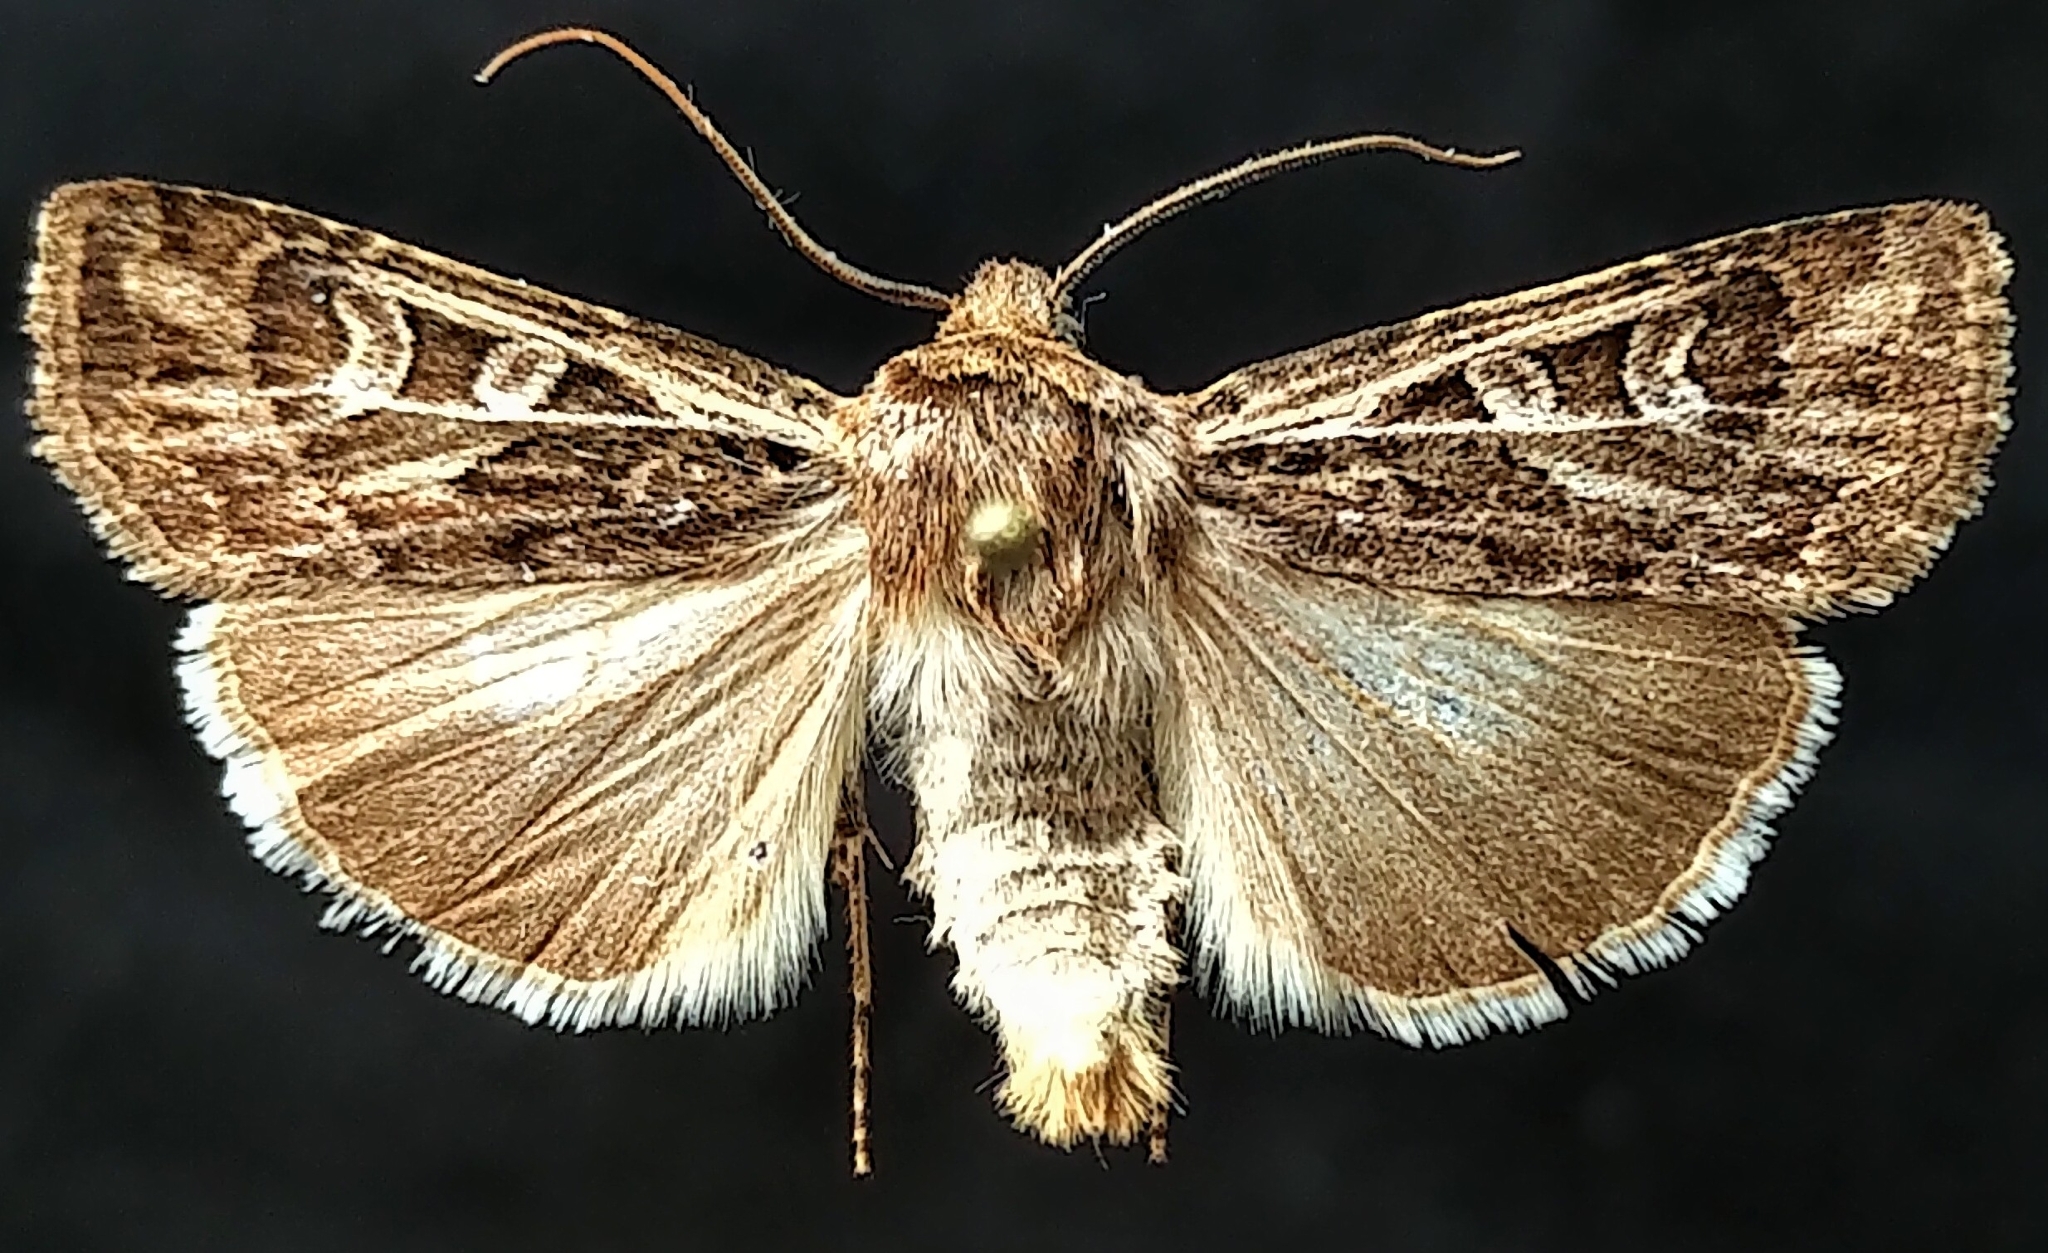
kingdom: Animalia
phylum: Arthropoda
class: Insecta
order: Lepidoptera
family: Noctuidae
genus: Euxoa
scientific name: Euxoa ridingsiana
